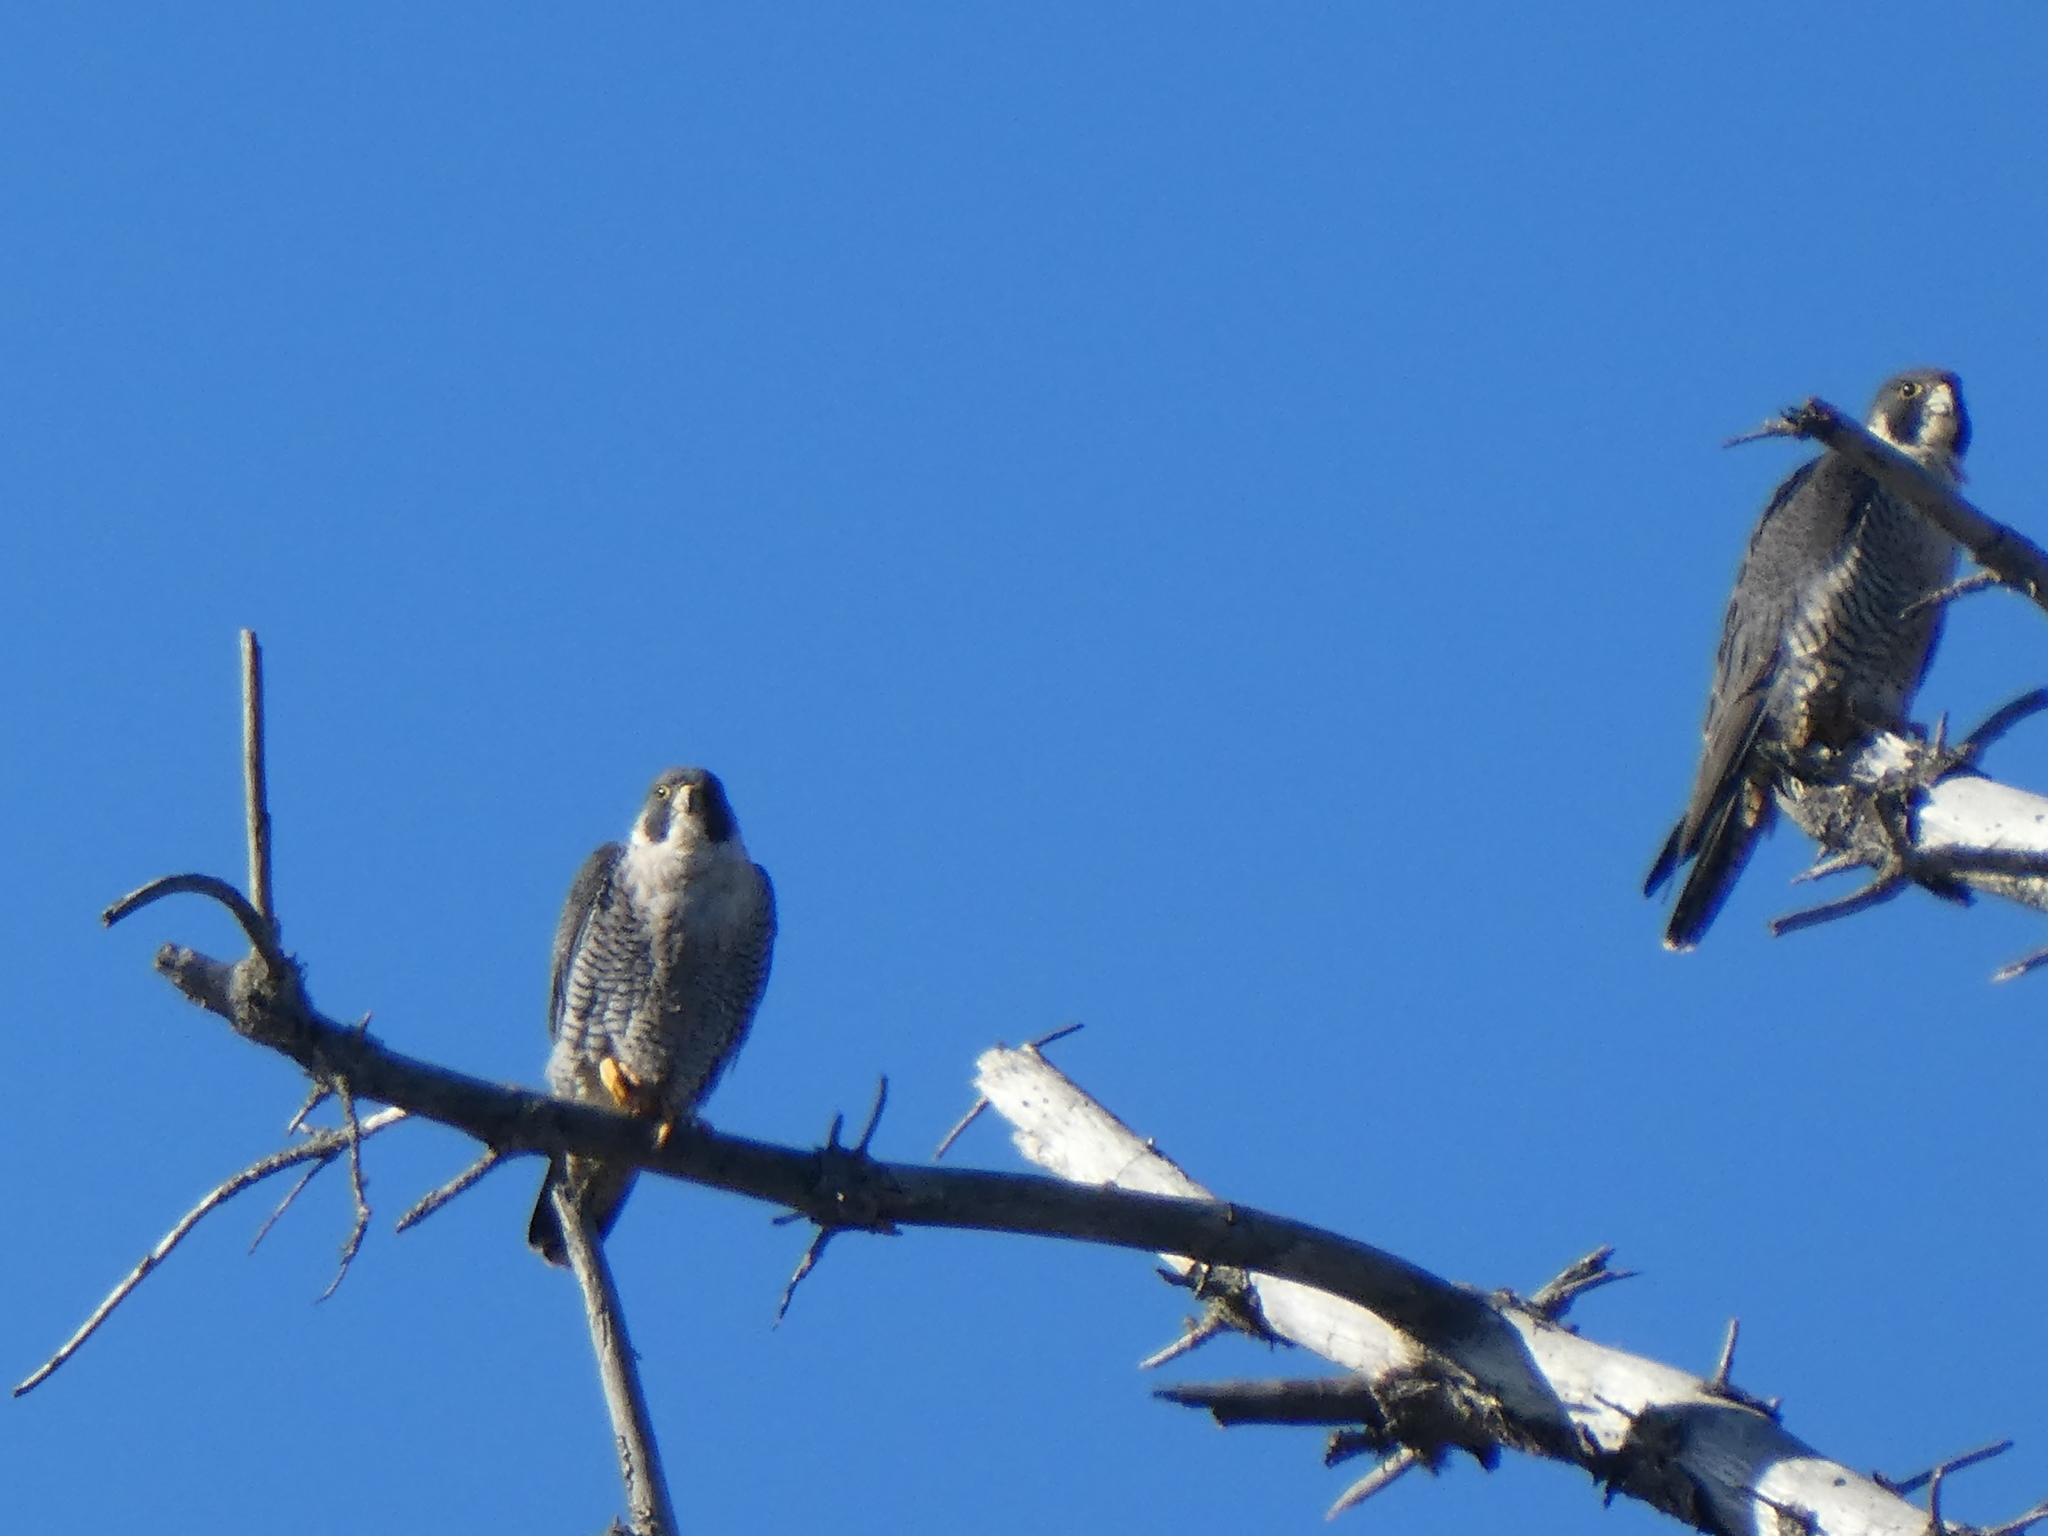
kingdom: Animalia
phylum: Chordata
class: Aves
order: Falconiformes
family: Falconidae
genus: Falco
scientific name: Falco peregrinus
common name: Peregrine falcon
